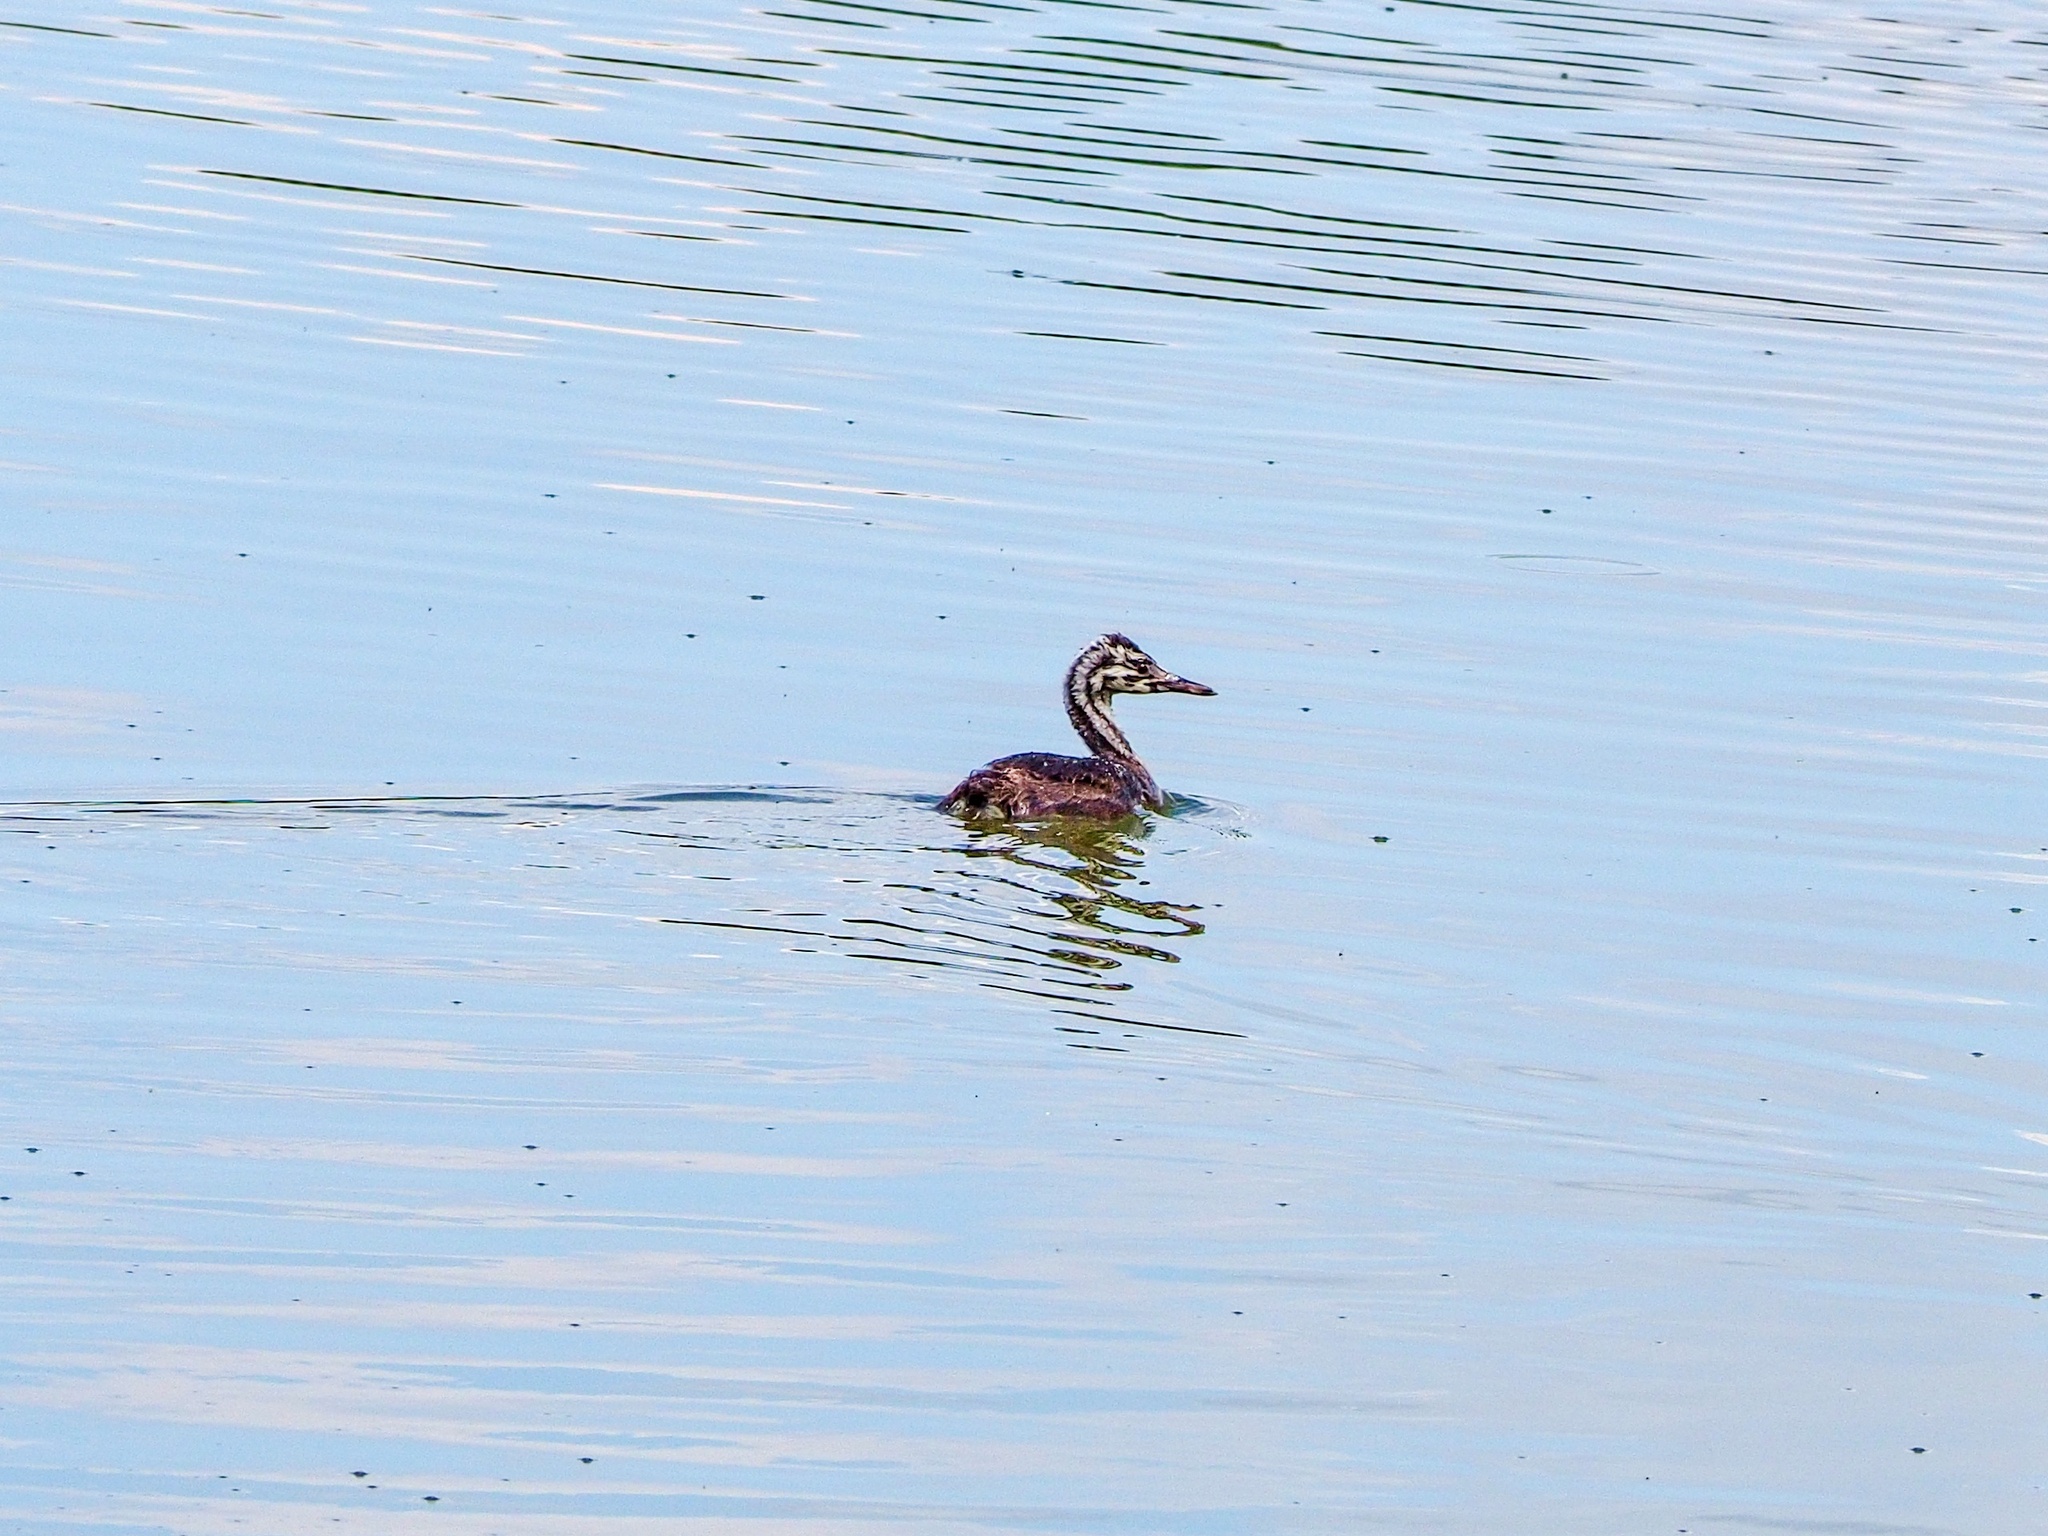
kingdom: Animalia
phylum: Chordata
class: Aves
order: Podicipediformes
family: Podicipedidae
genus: Podiceps
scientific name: Podiceps cristatus
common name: Great crested grebe
